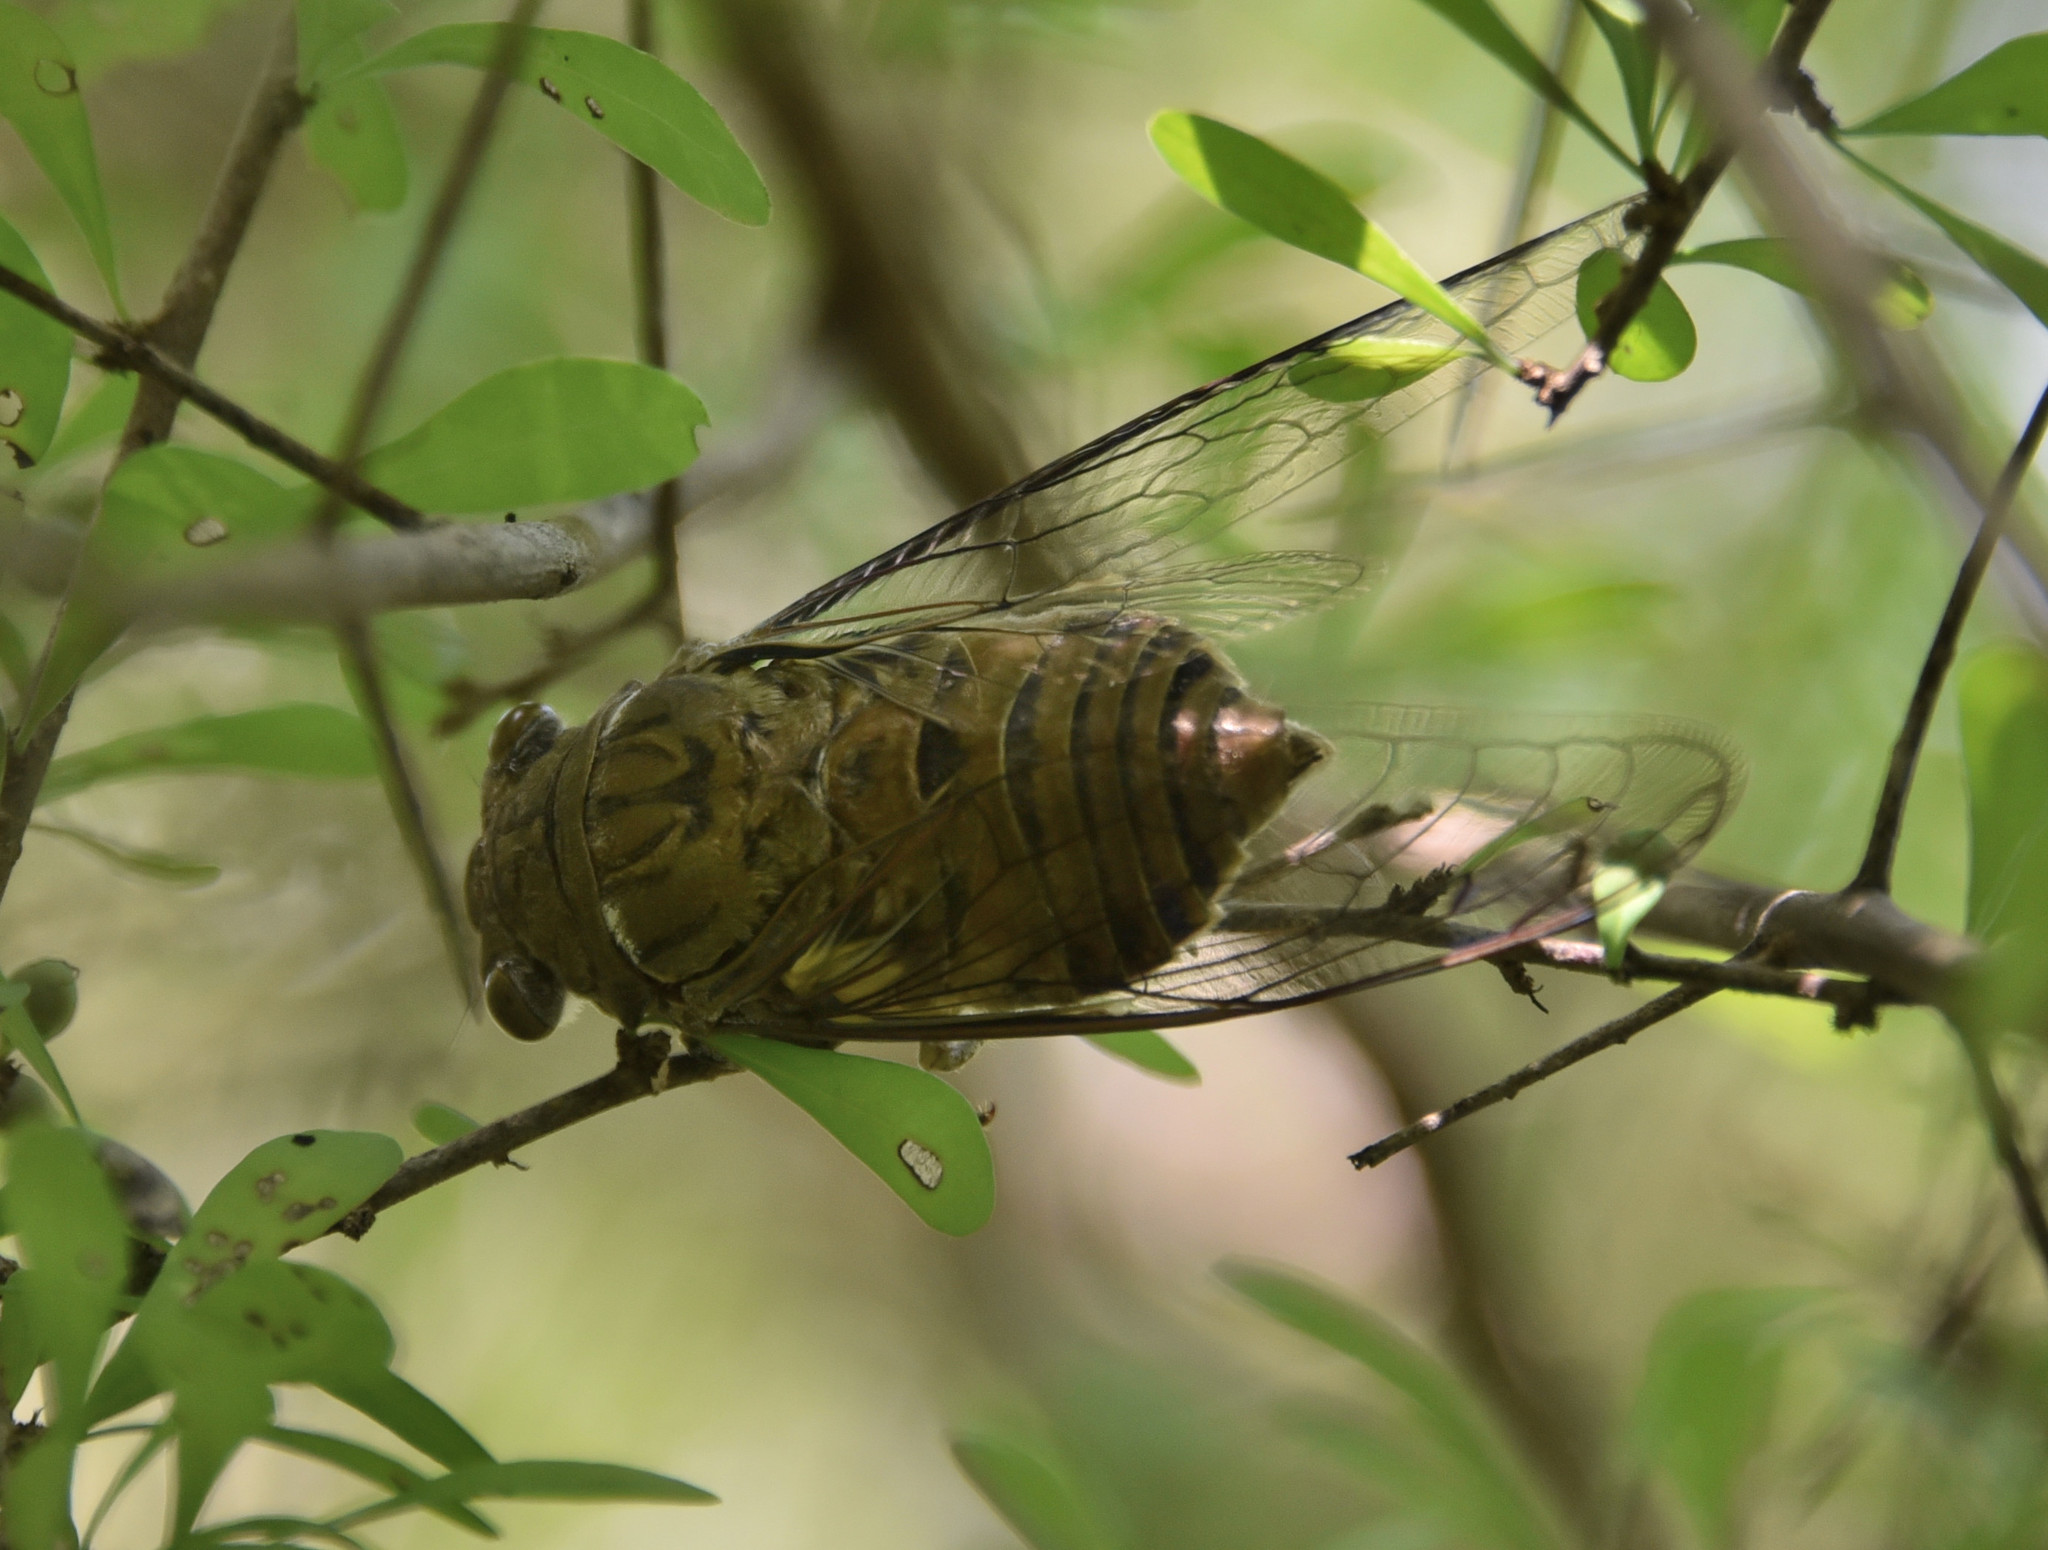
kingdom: Animalia
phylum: Arthropoda
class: Insecta
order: Hemiptera
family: Cicadidae
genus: Quesada
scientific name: Quesada gigas
